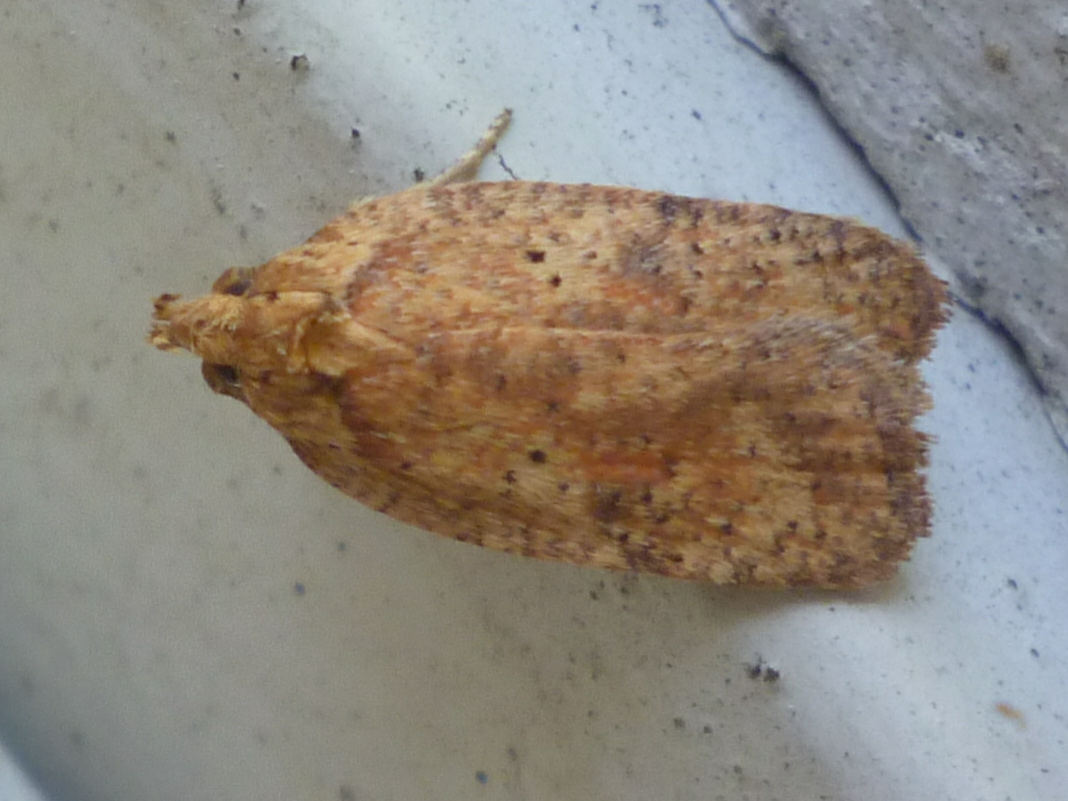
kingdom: Animalia
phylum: Arthropoda
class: Insecta
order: Lepidoptera
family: Depressariidae
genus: Agonopterix
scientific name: Agonopterix thelmae
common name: Thelma's agonopterix moth
